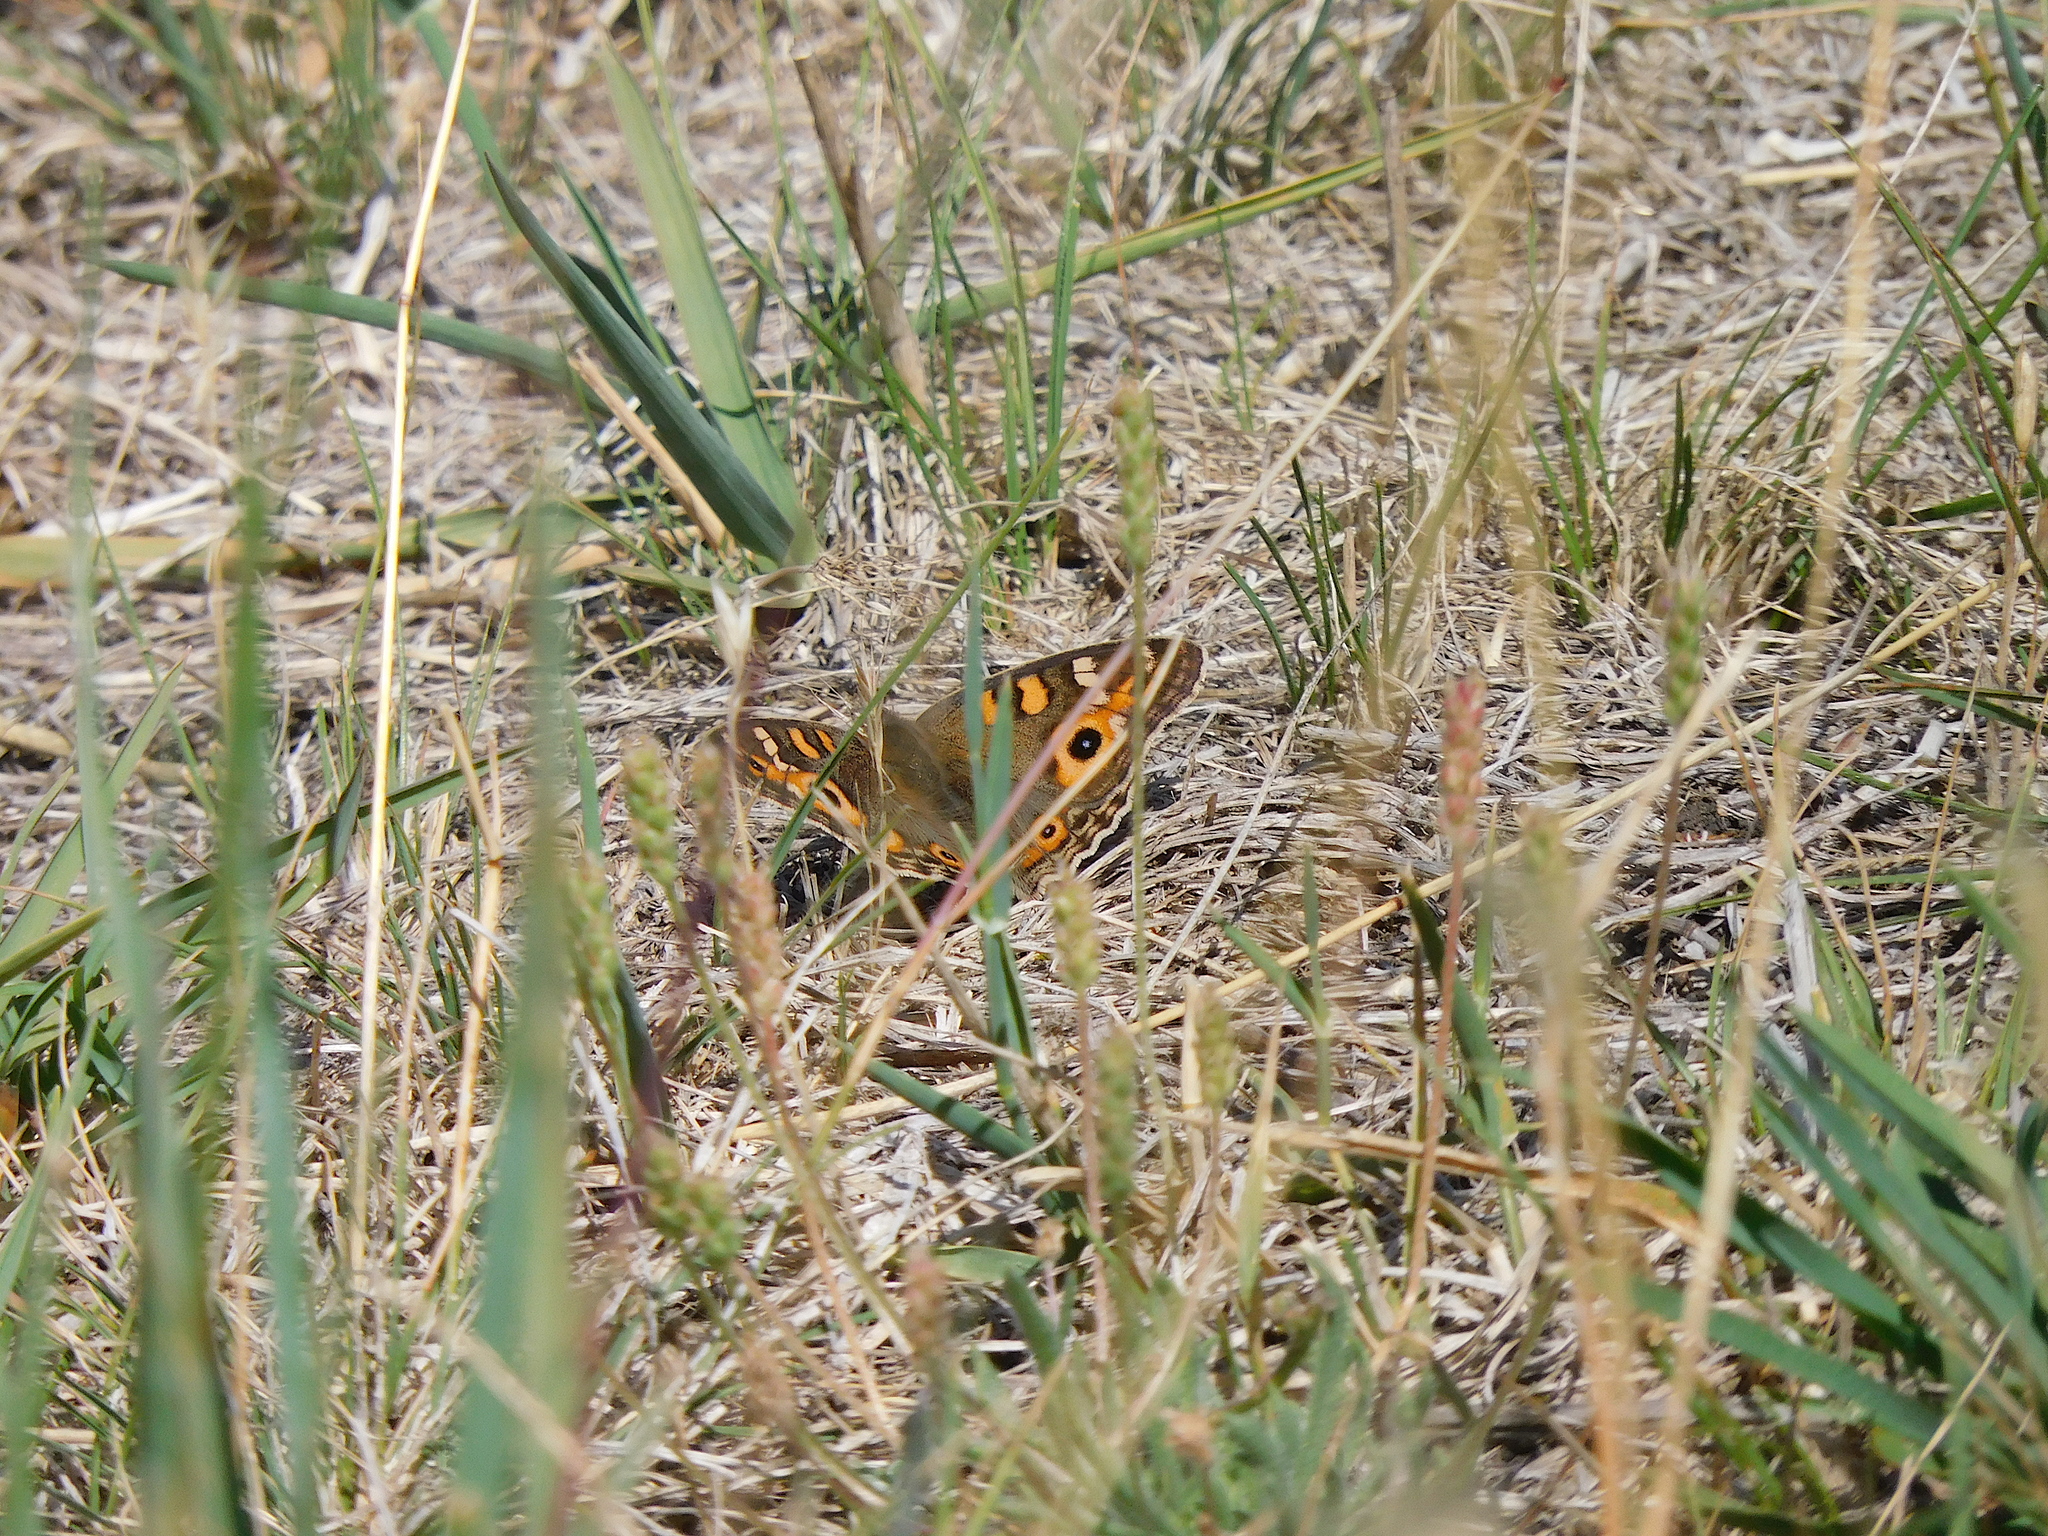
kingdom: Animalia
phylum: Arthropoda
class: Insecta
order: Lepidoptera
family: Nymphalidae
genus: Junonia
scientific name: Junonia villida
